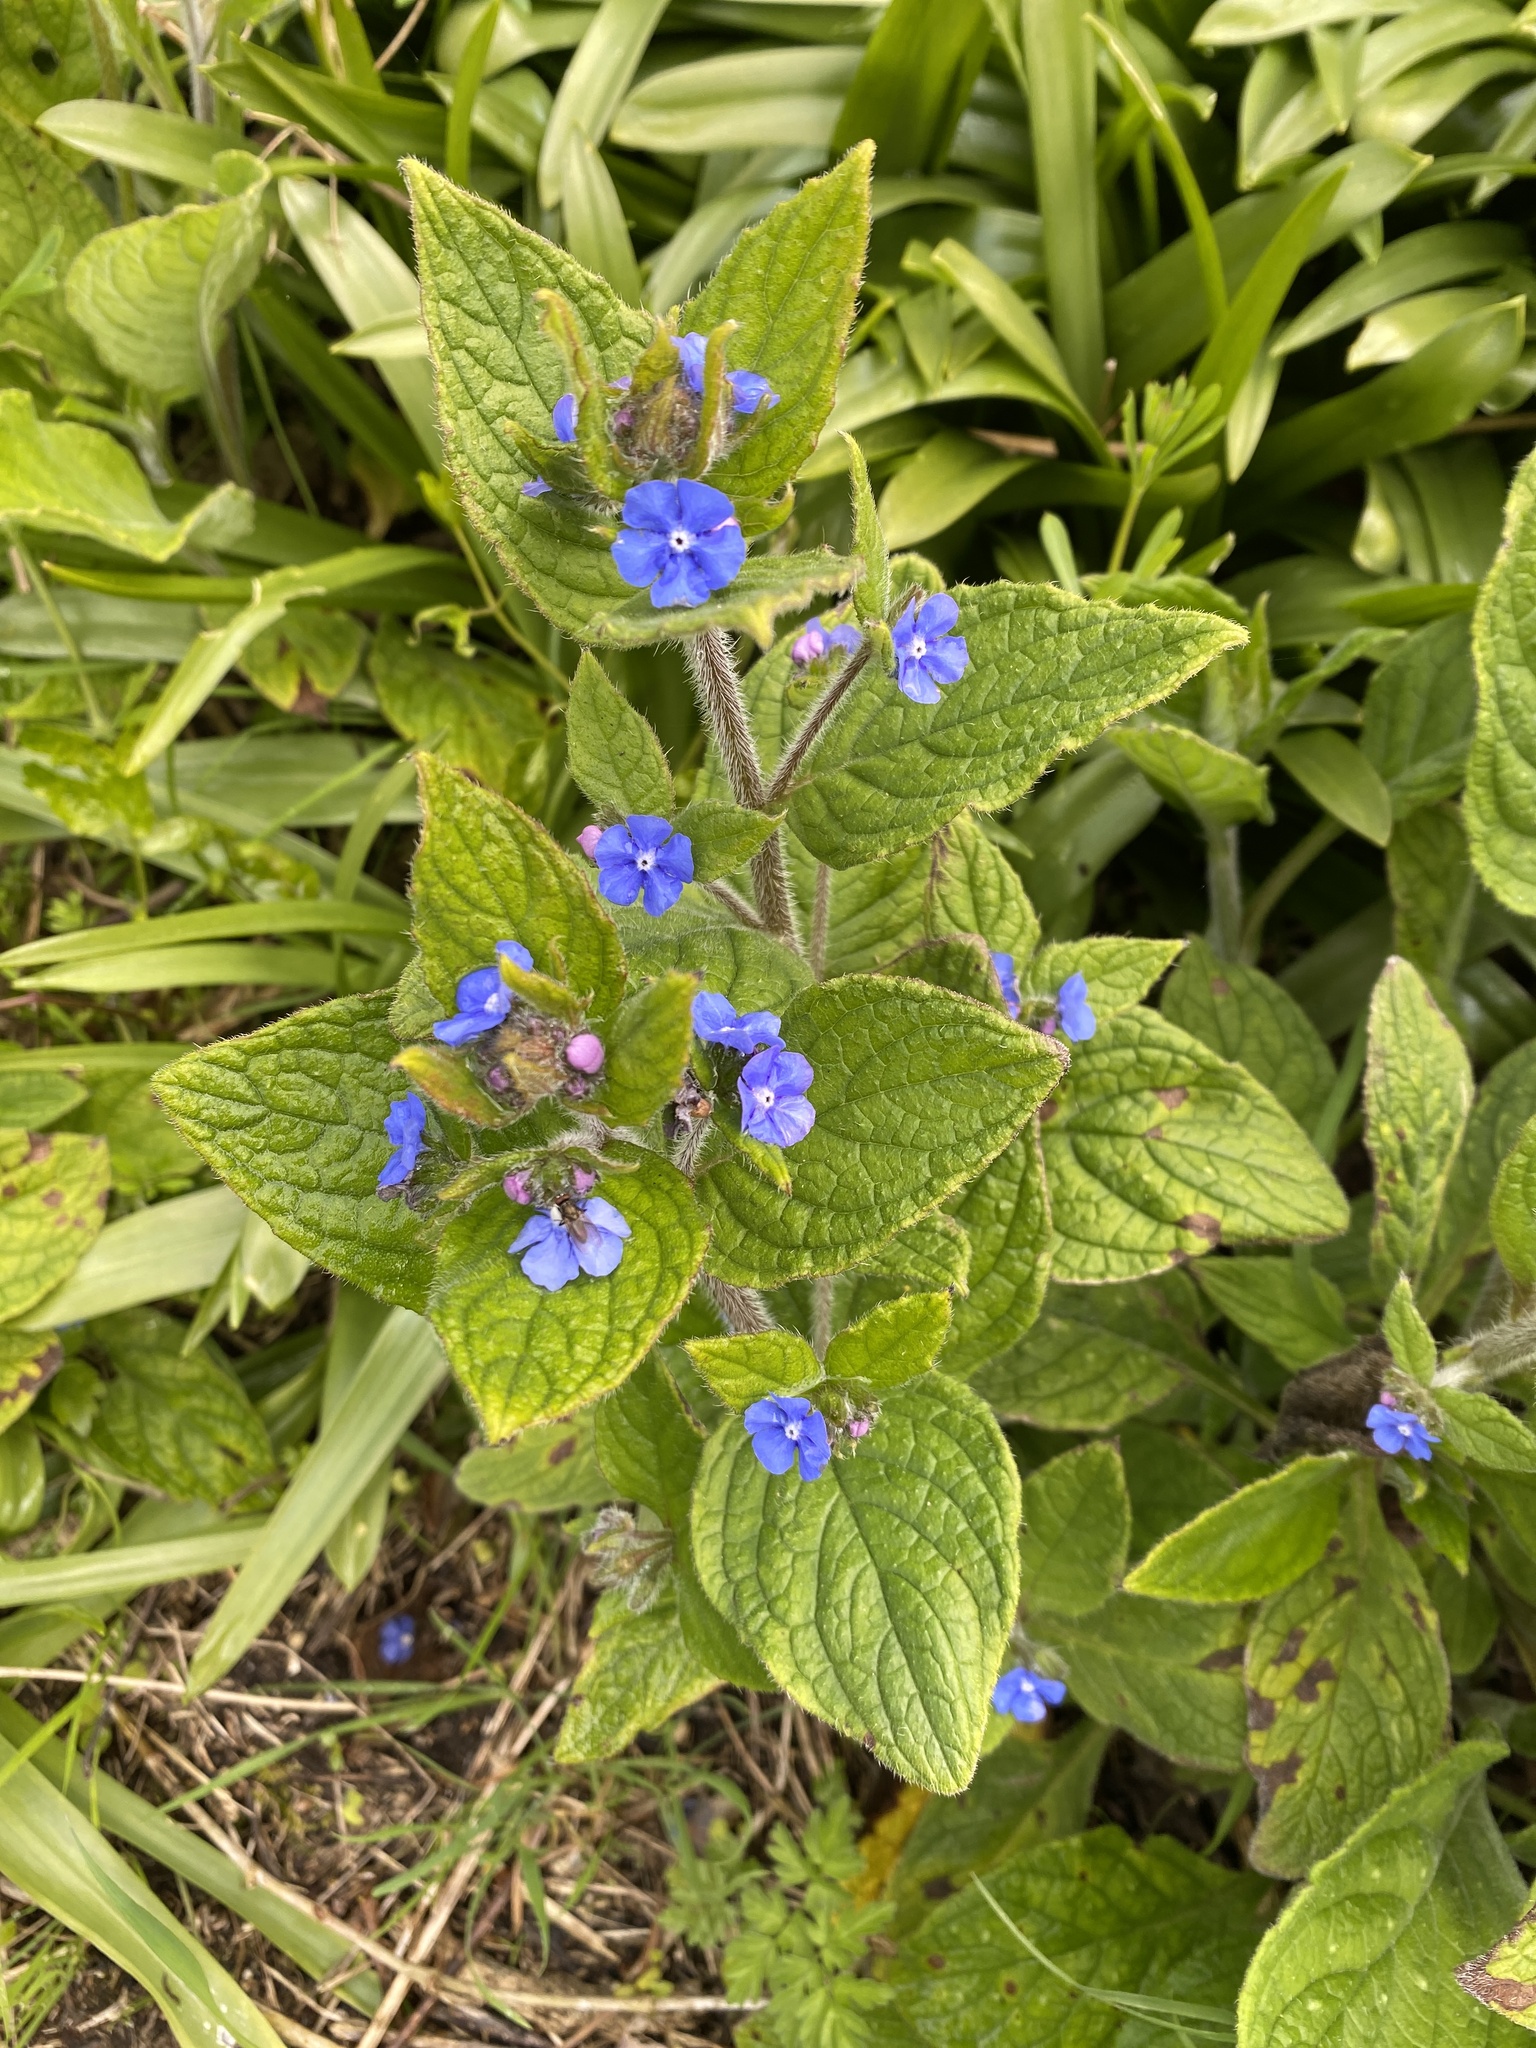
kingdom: Plantae
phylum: Tracheophyta
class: Magnoliopsida
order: Boraginales
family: Boraginaceae
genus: Pentaglottis
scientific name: Pentaglottis sempervirens
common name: Green alkanet
